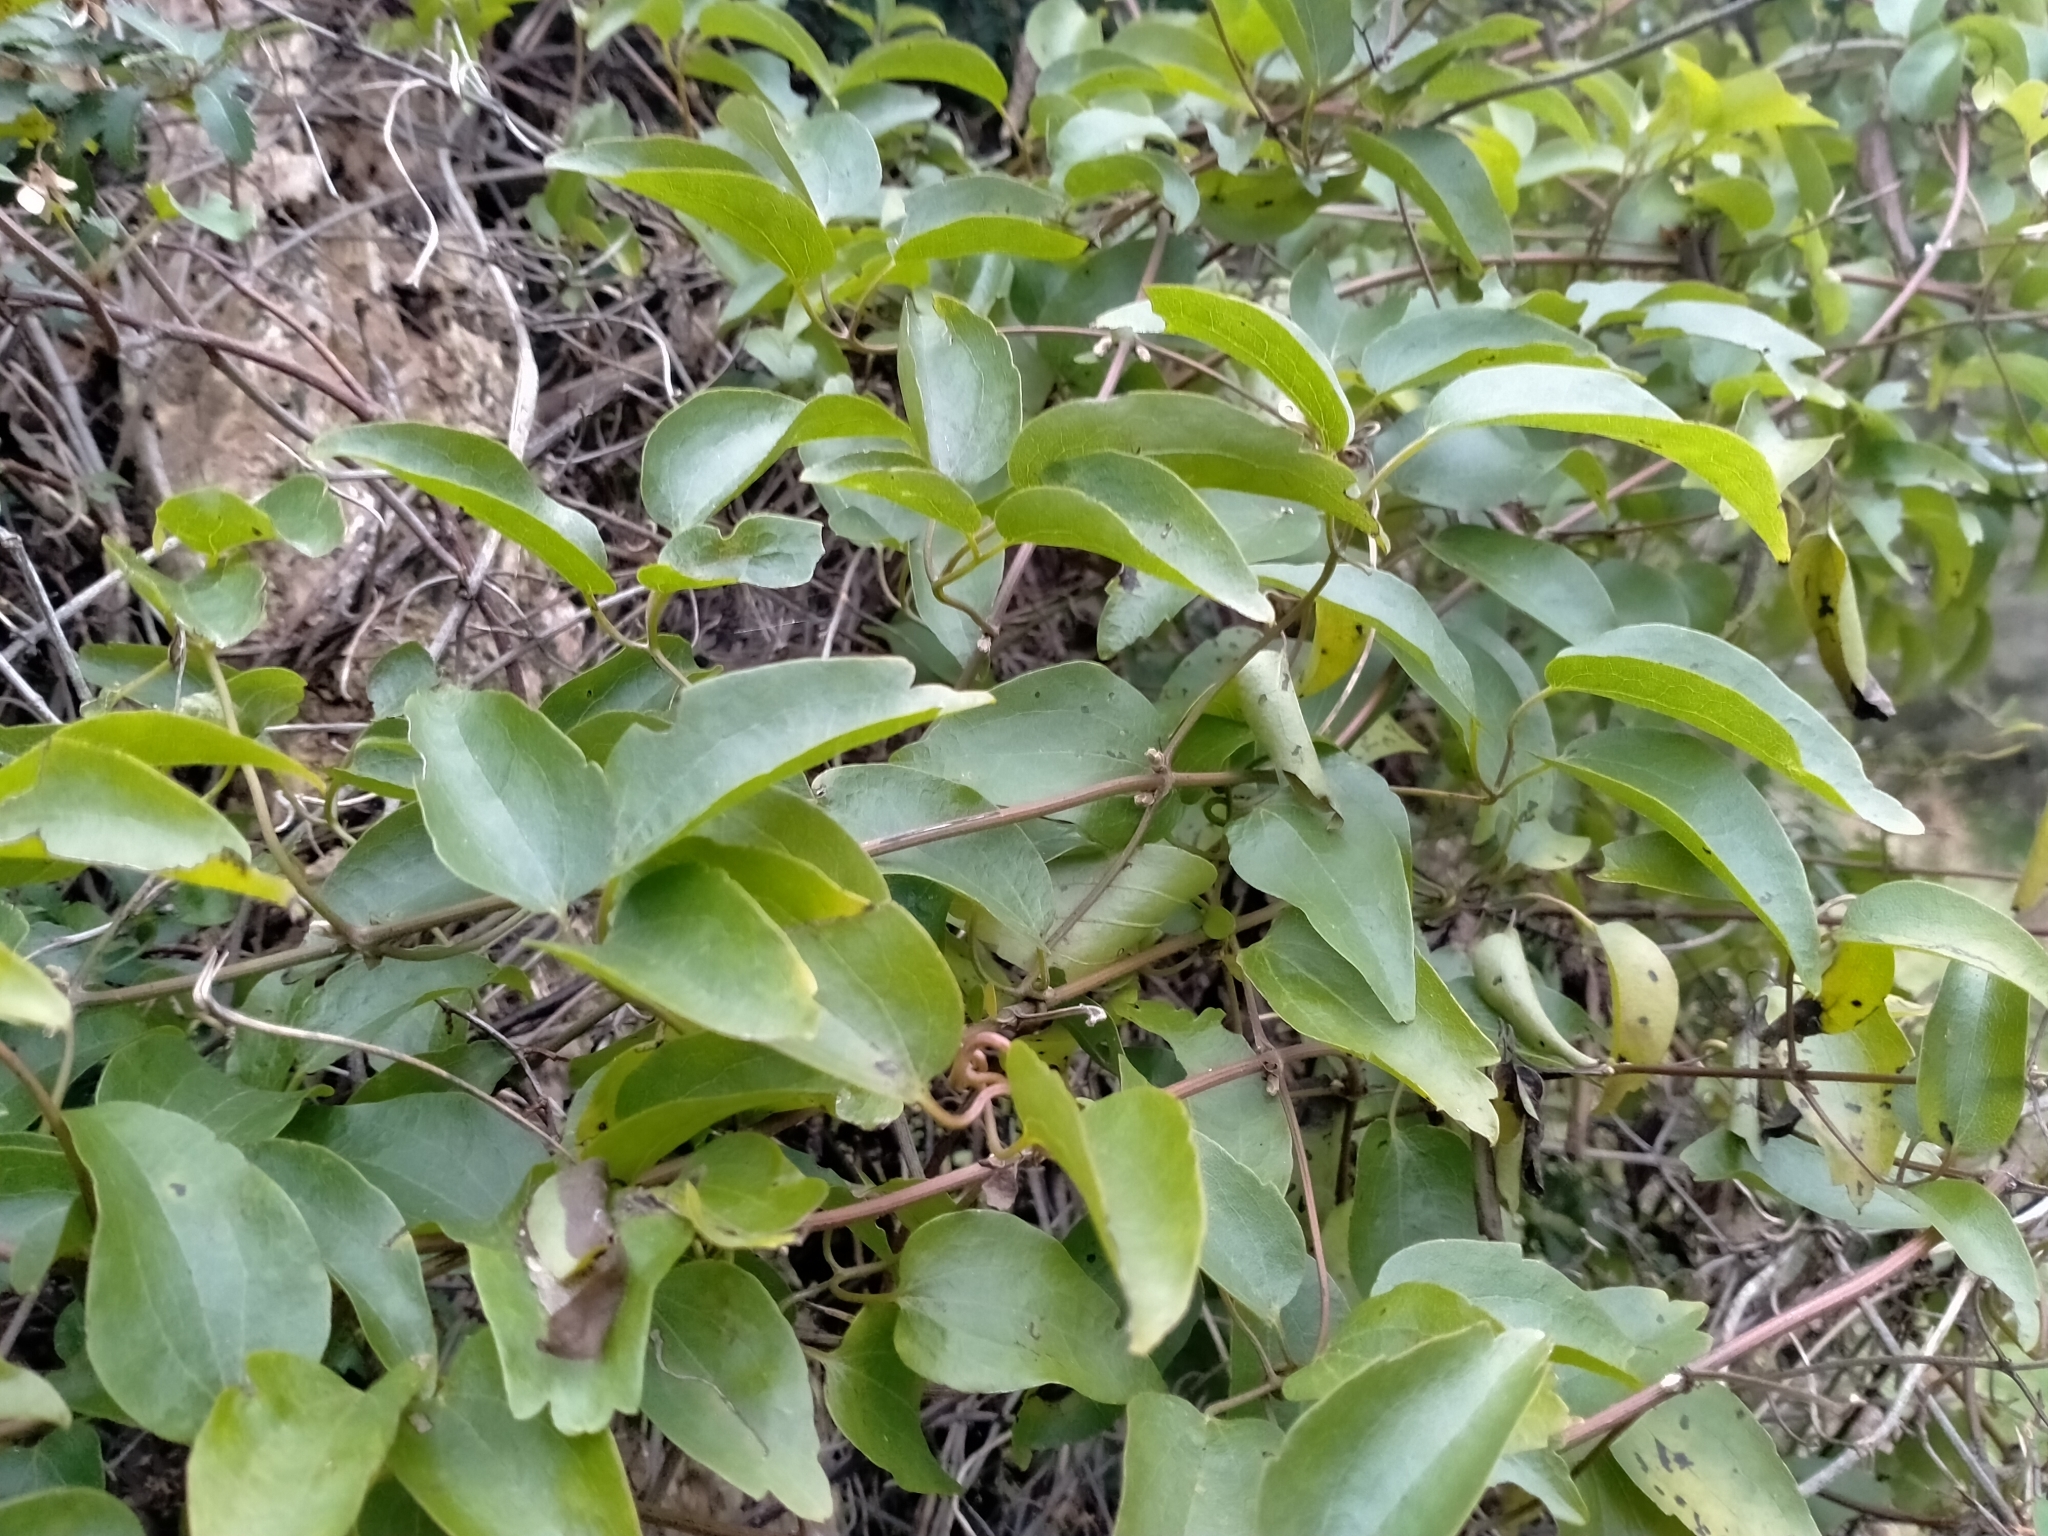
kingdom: Plantae
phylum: Tracheophyta
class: Magnoliopsida
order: Ranunculales
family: Ranunculaceae
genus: Clematis
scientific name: Clematis foetida
